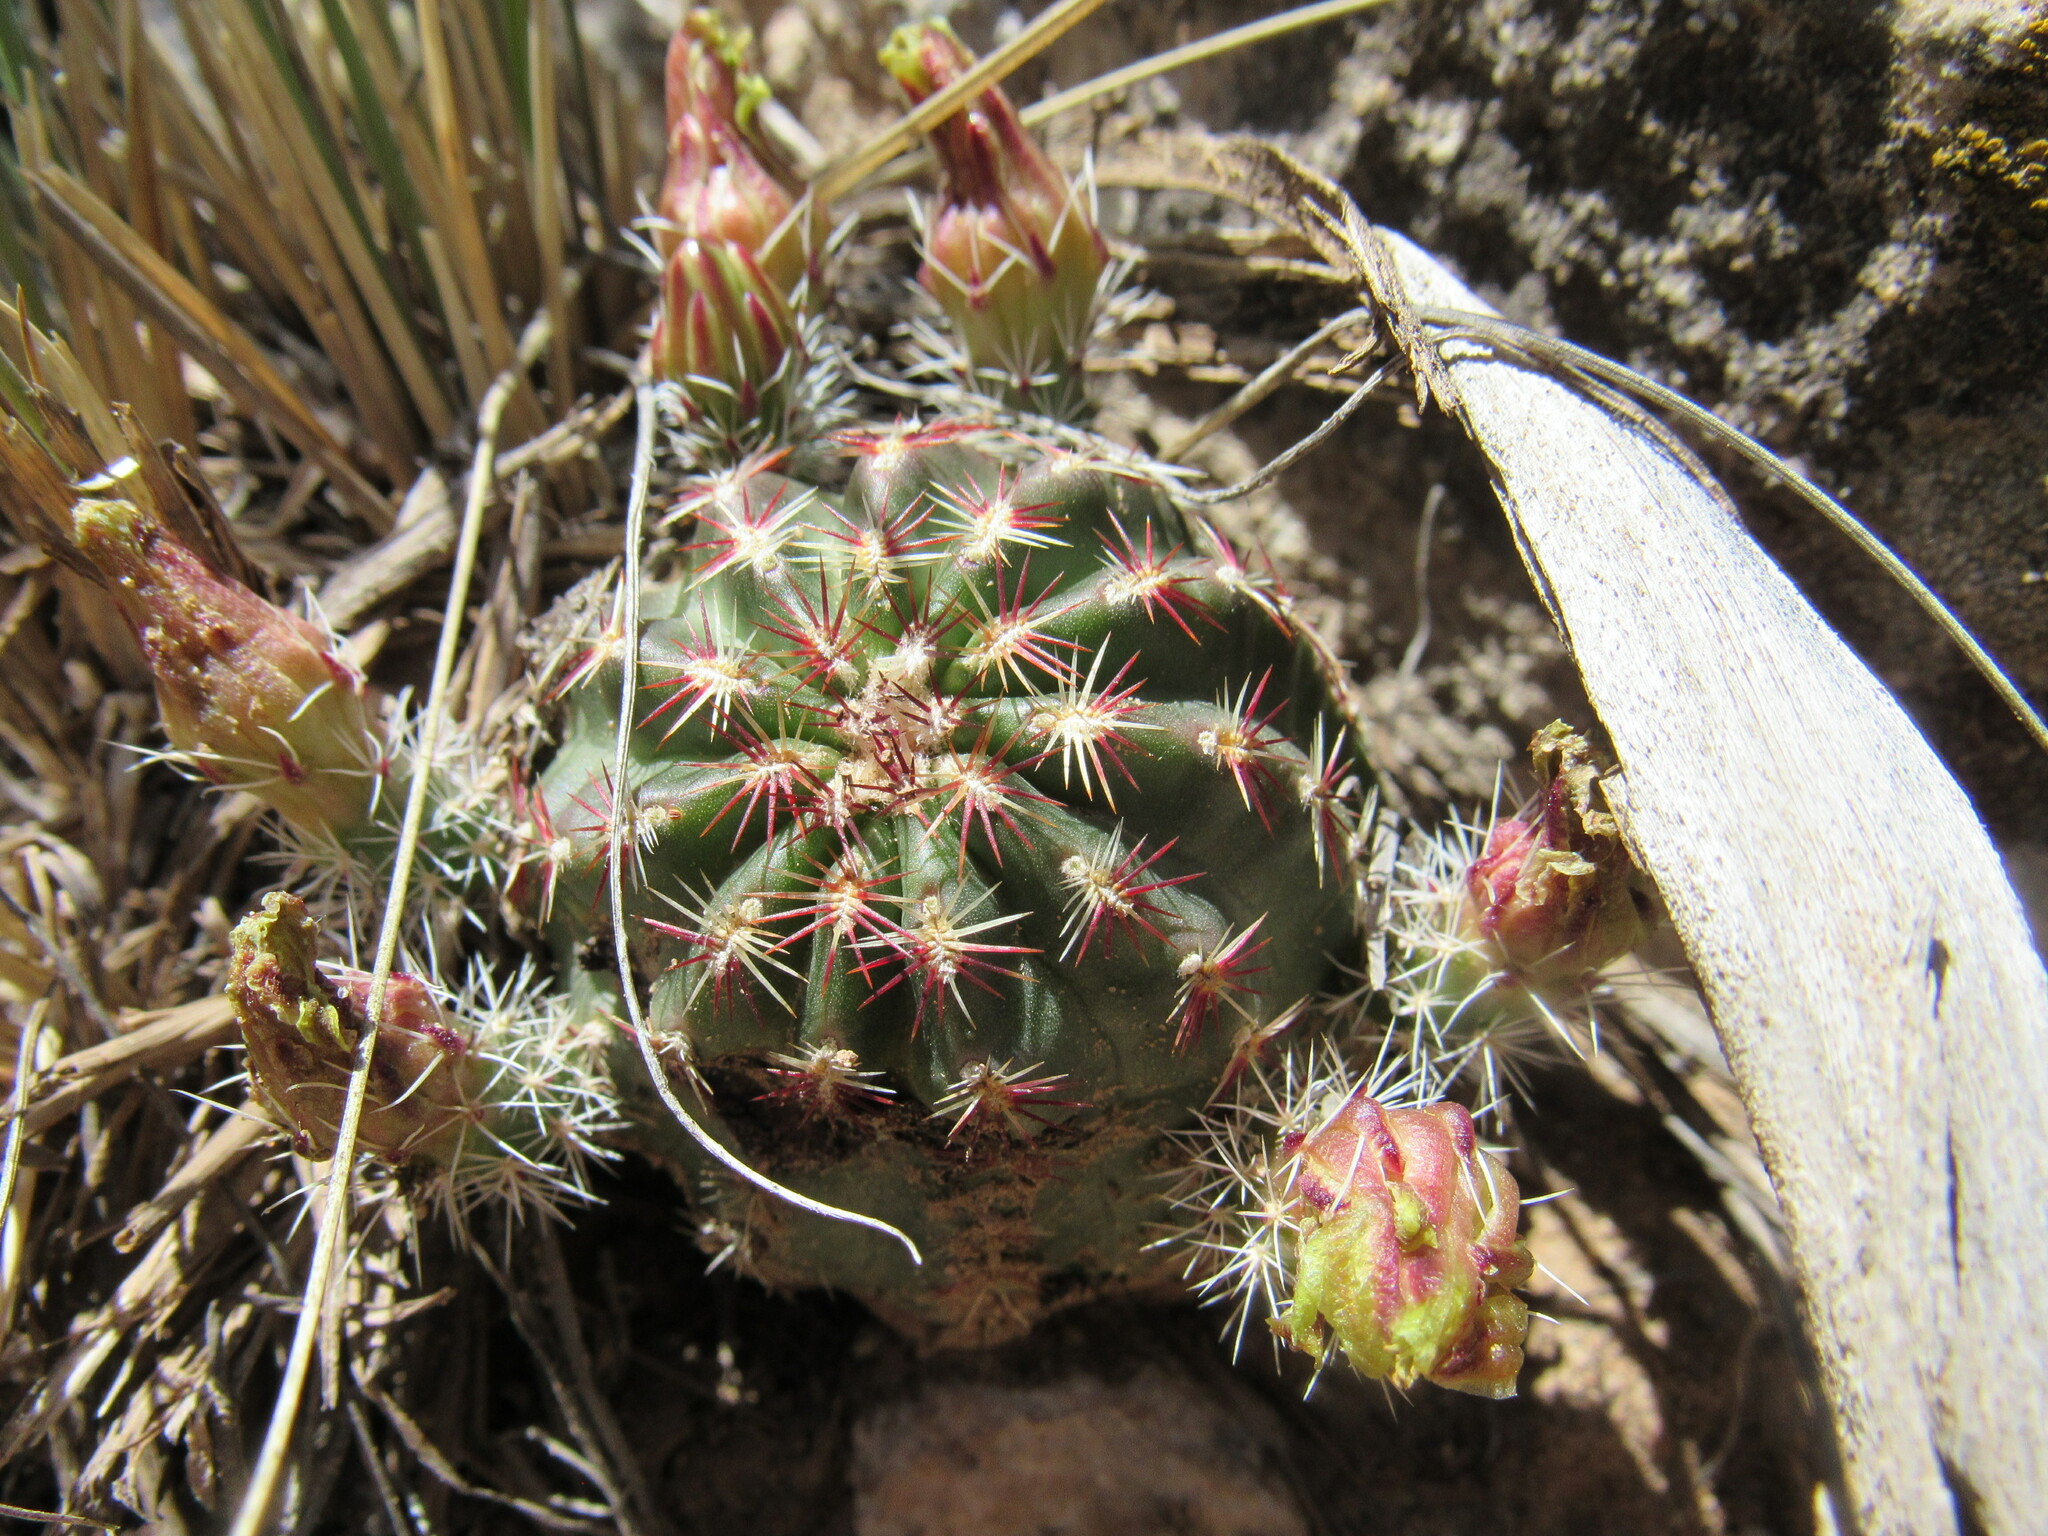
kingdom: Plantae
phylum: Tracheophyta
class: Magnoliopsida
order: Caryophyllales
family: Cactaceae
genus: Echinocereus
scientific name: Echinocereus viridiflorus
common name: Nylon hedgehog cactus
